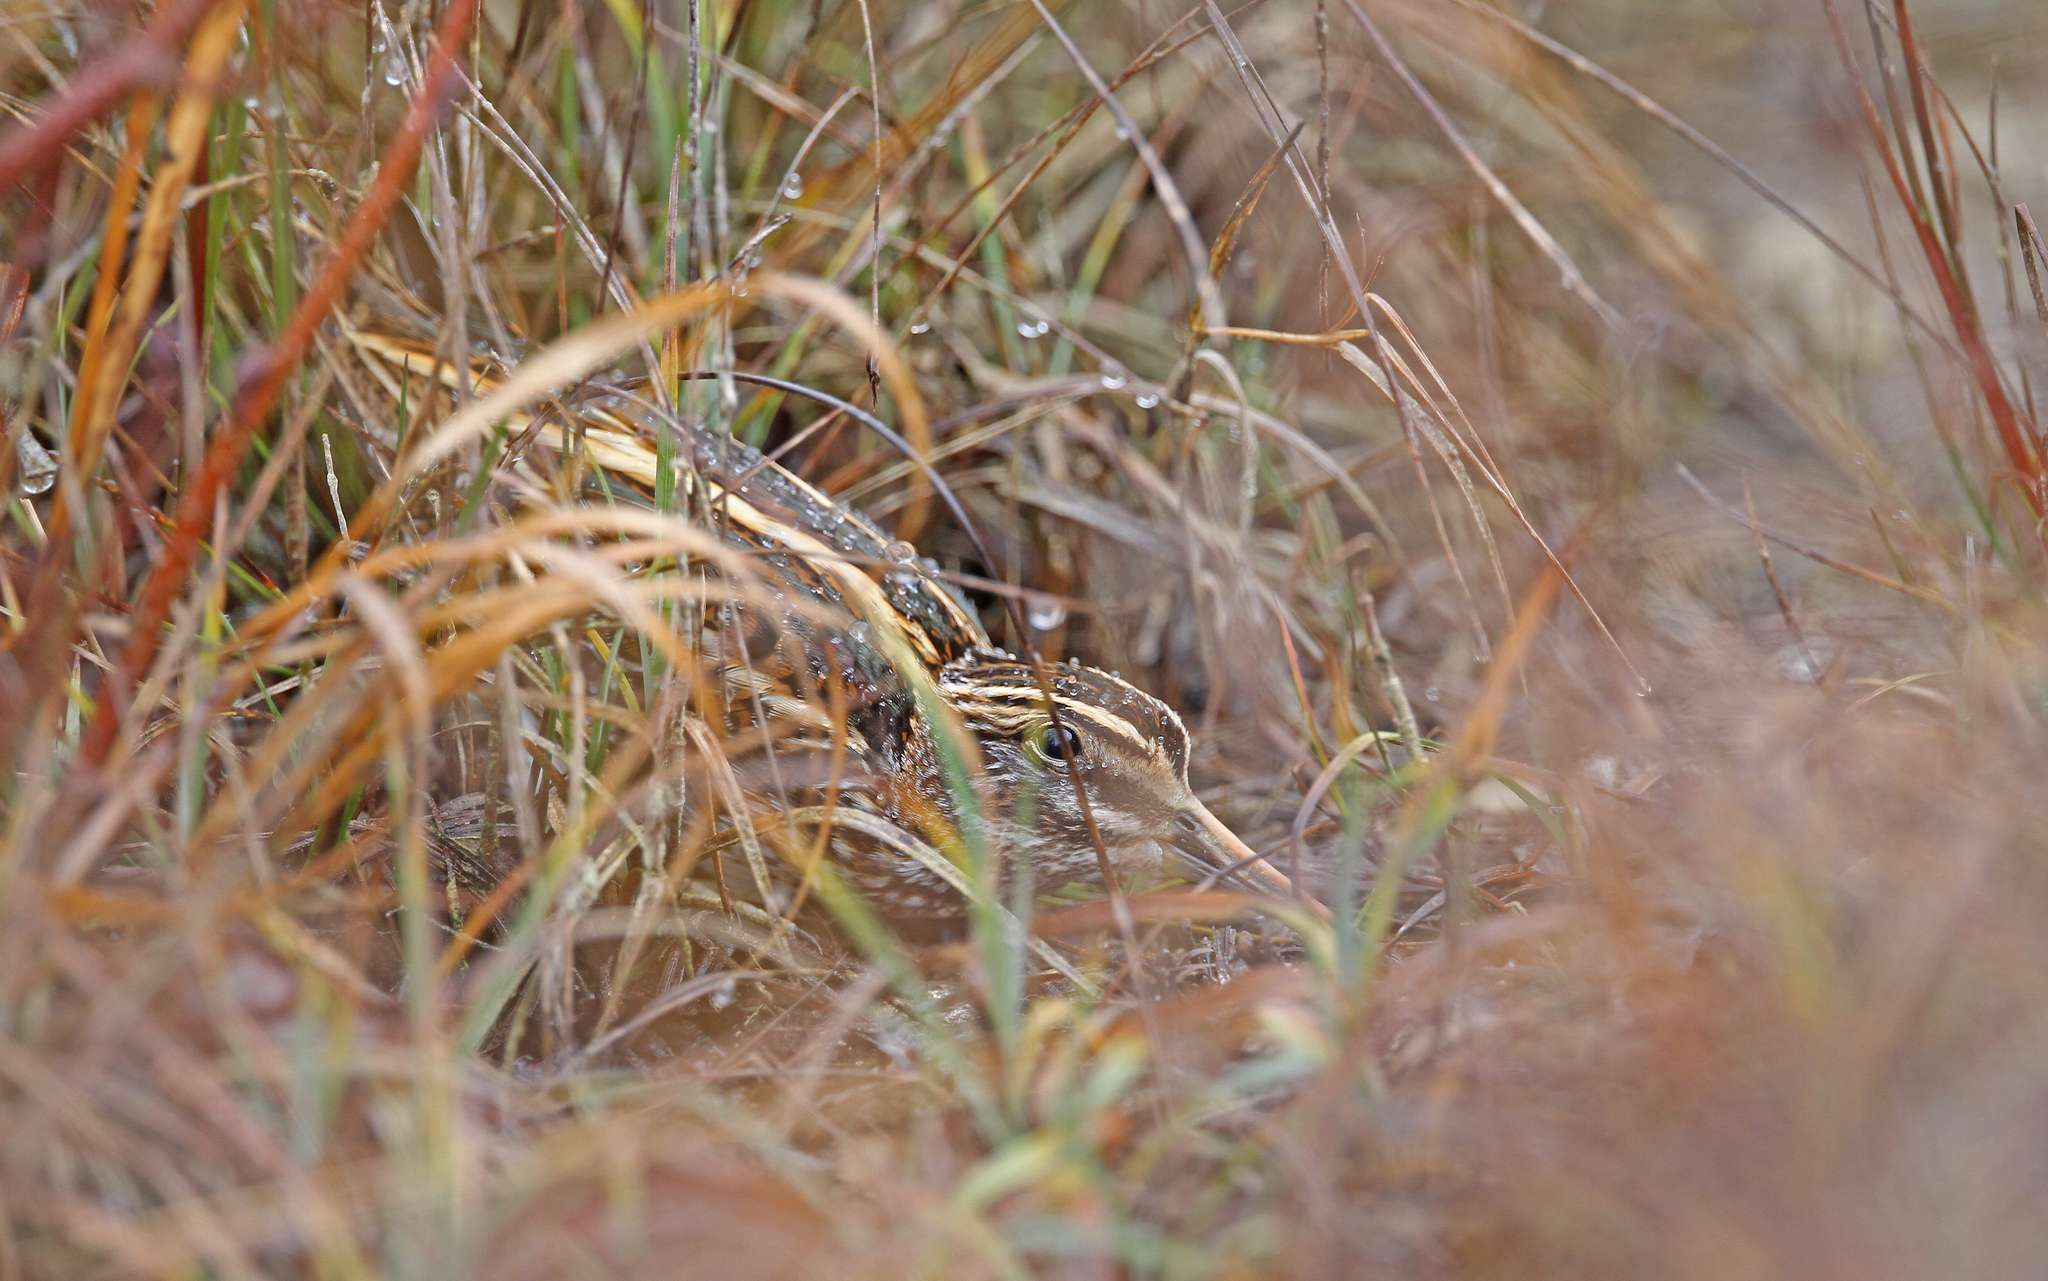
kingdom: Animalia
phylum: Chordata
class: Aves
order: Charadriiformes
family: Scolopacidae
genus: Lymnocryptes
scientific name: Lymnocryptes minimus
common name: Jack snipe
